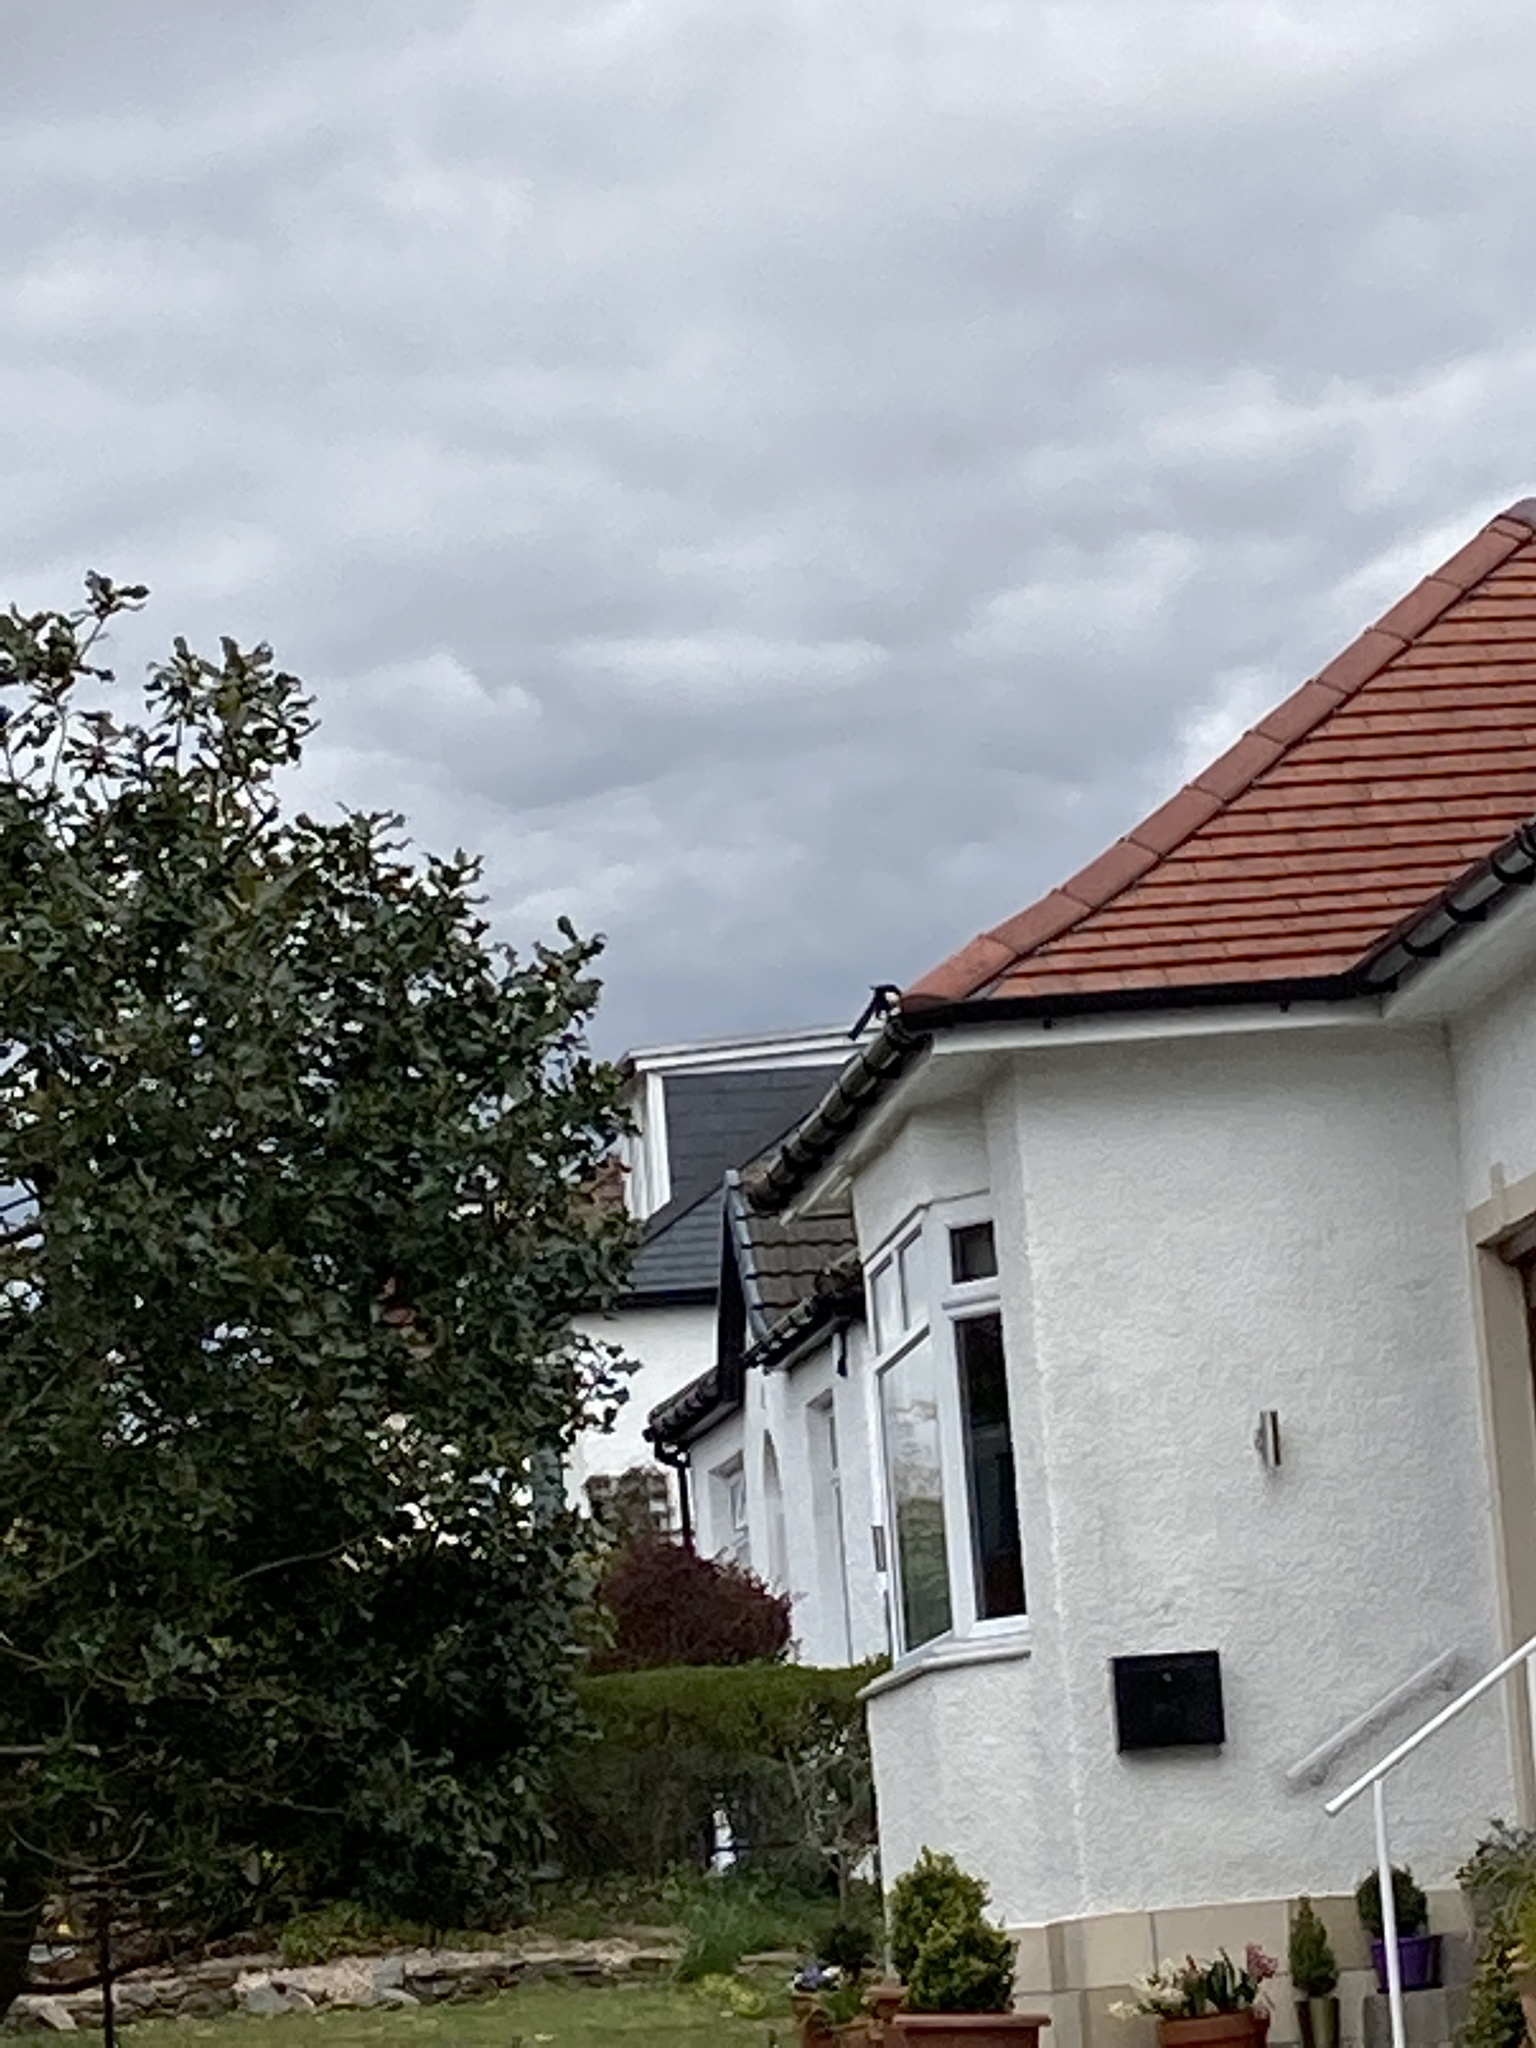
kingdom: Animalia
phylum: Chordata
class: Aves
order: Passeriformes
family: Corvidae
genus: Pica
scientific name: Pica pica
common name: Eurasian magpie
